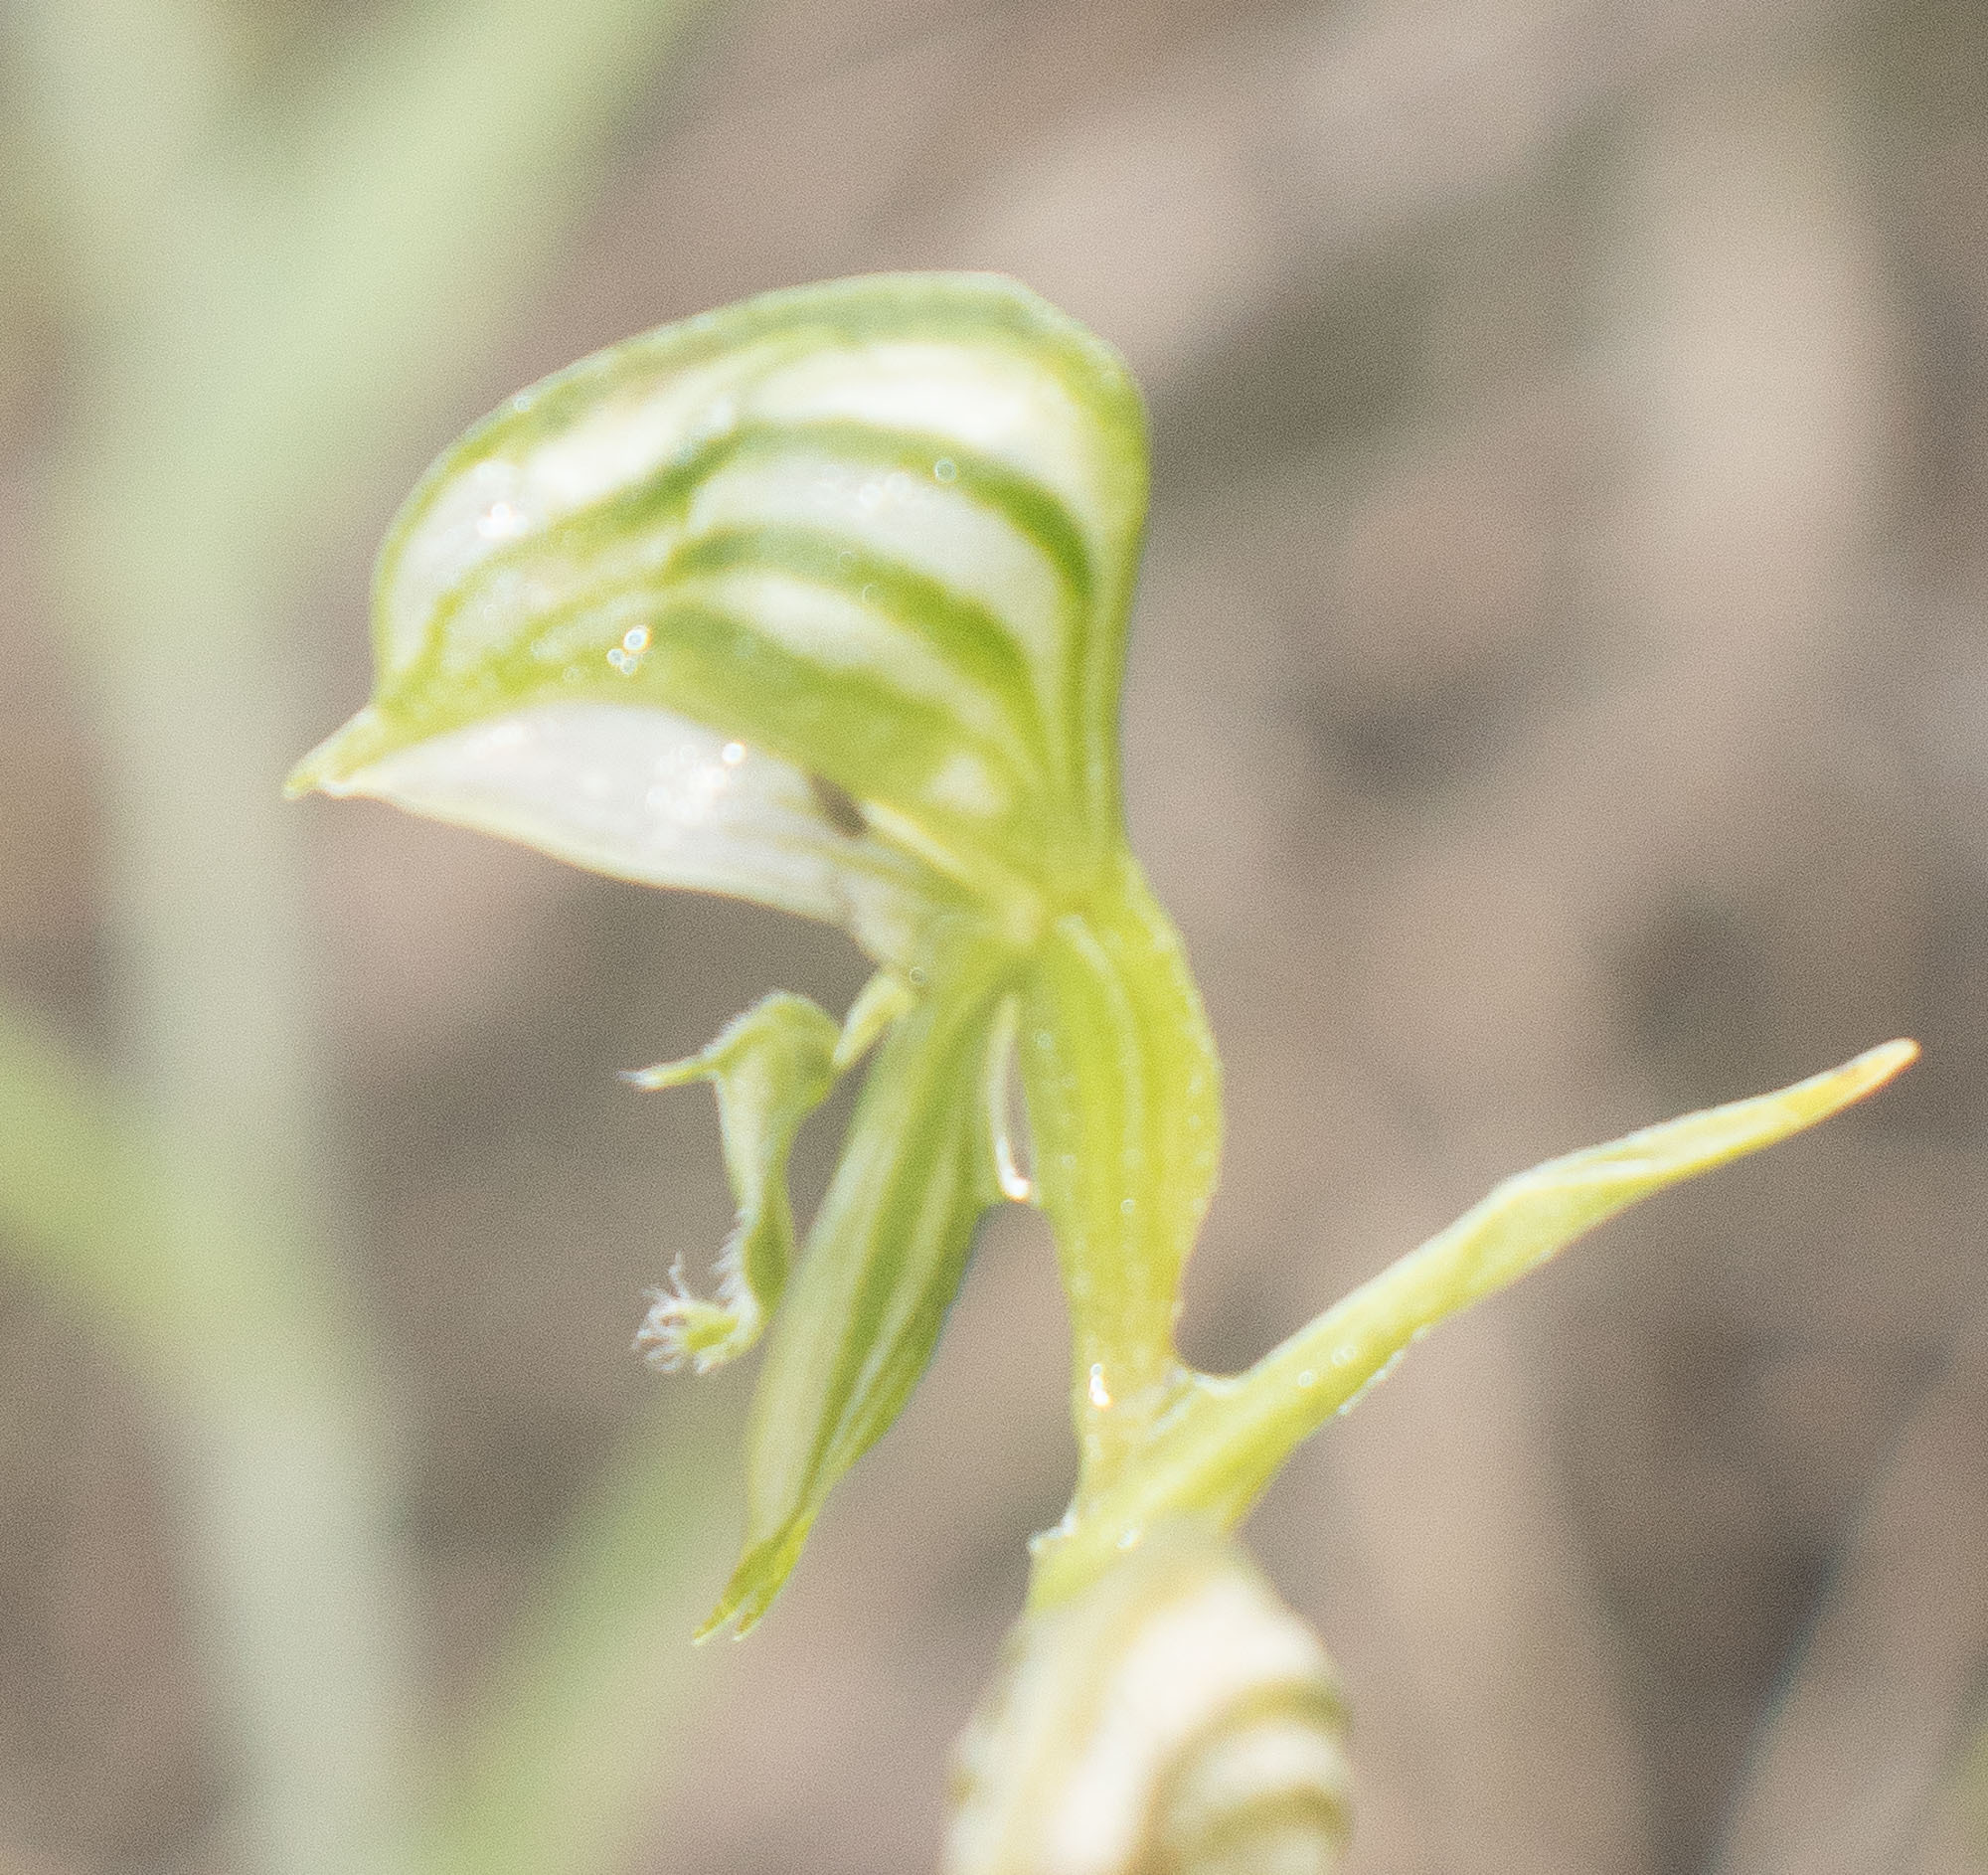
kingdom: Plantae
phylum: Tracheophyta
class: Liliopsida
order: Asparagales
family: Orchidaceae
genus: Pterostylis
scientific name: Pterostylis vittata
